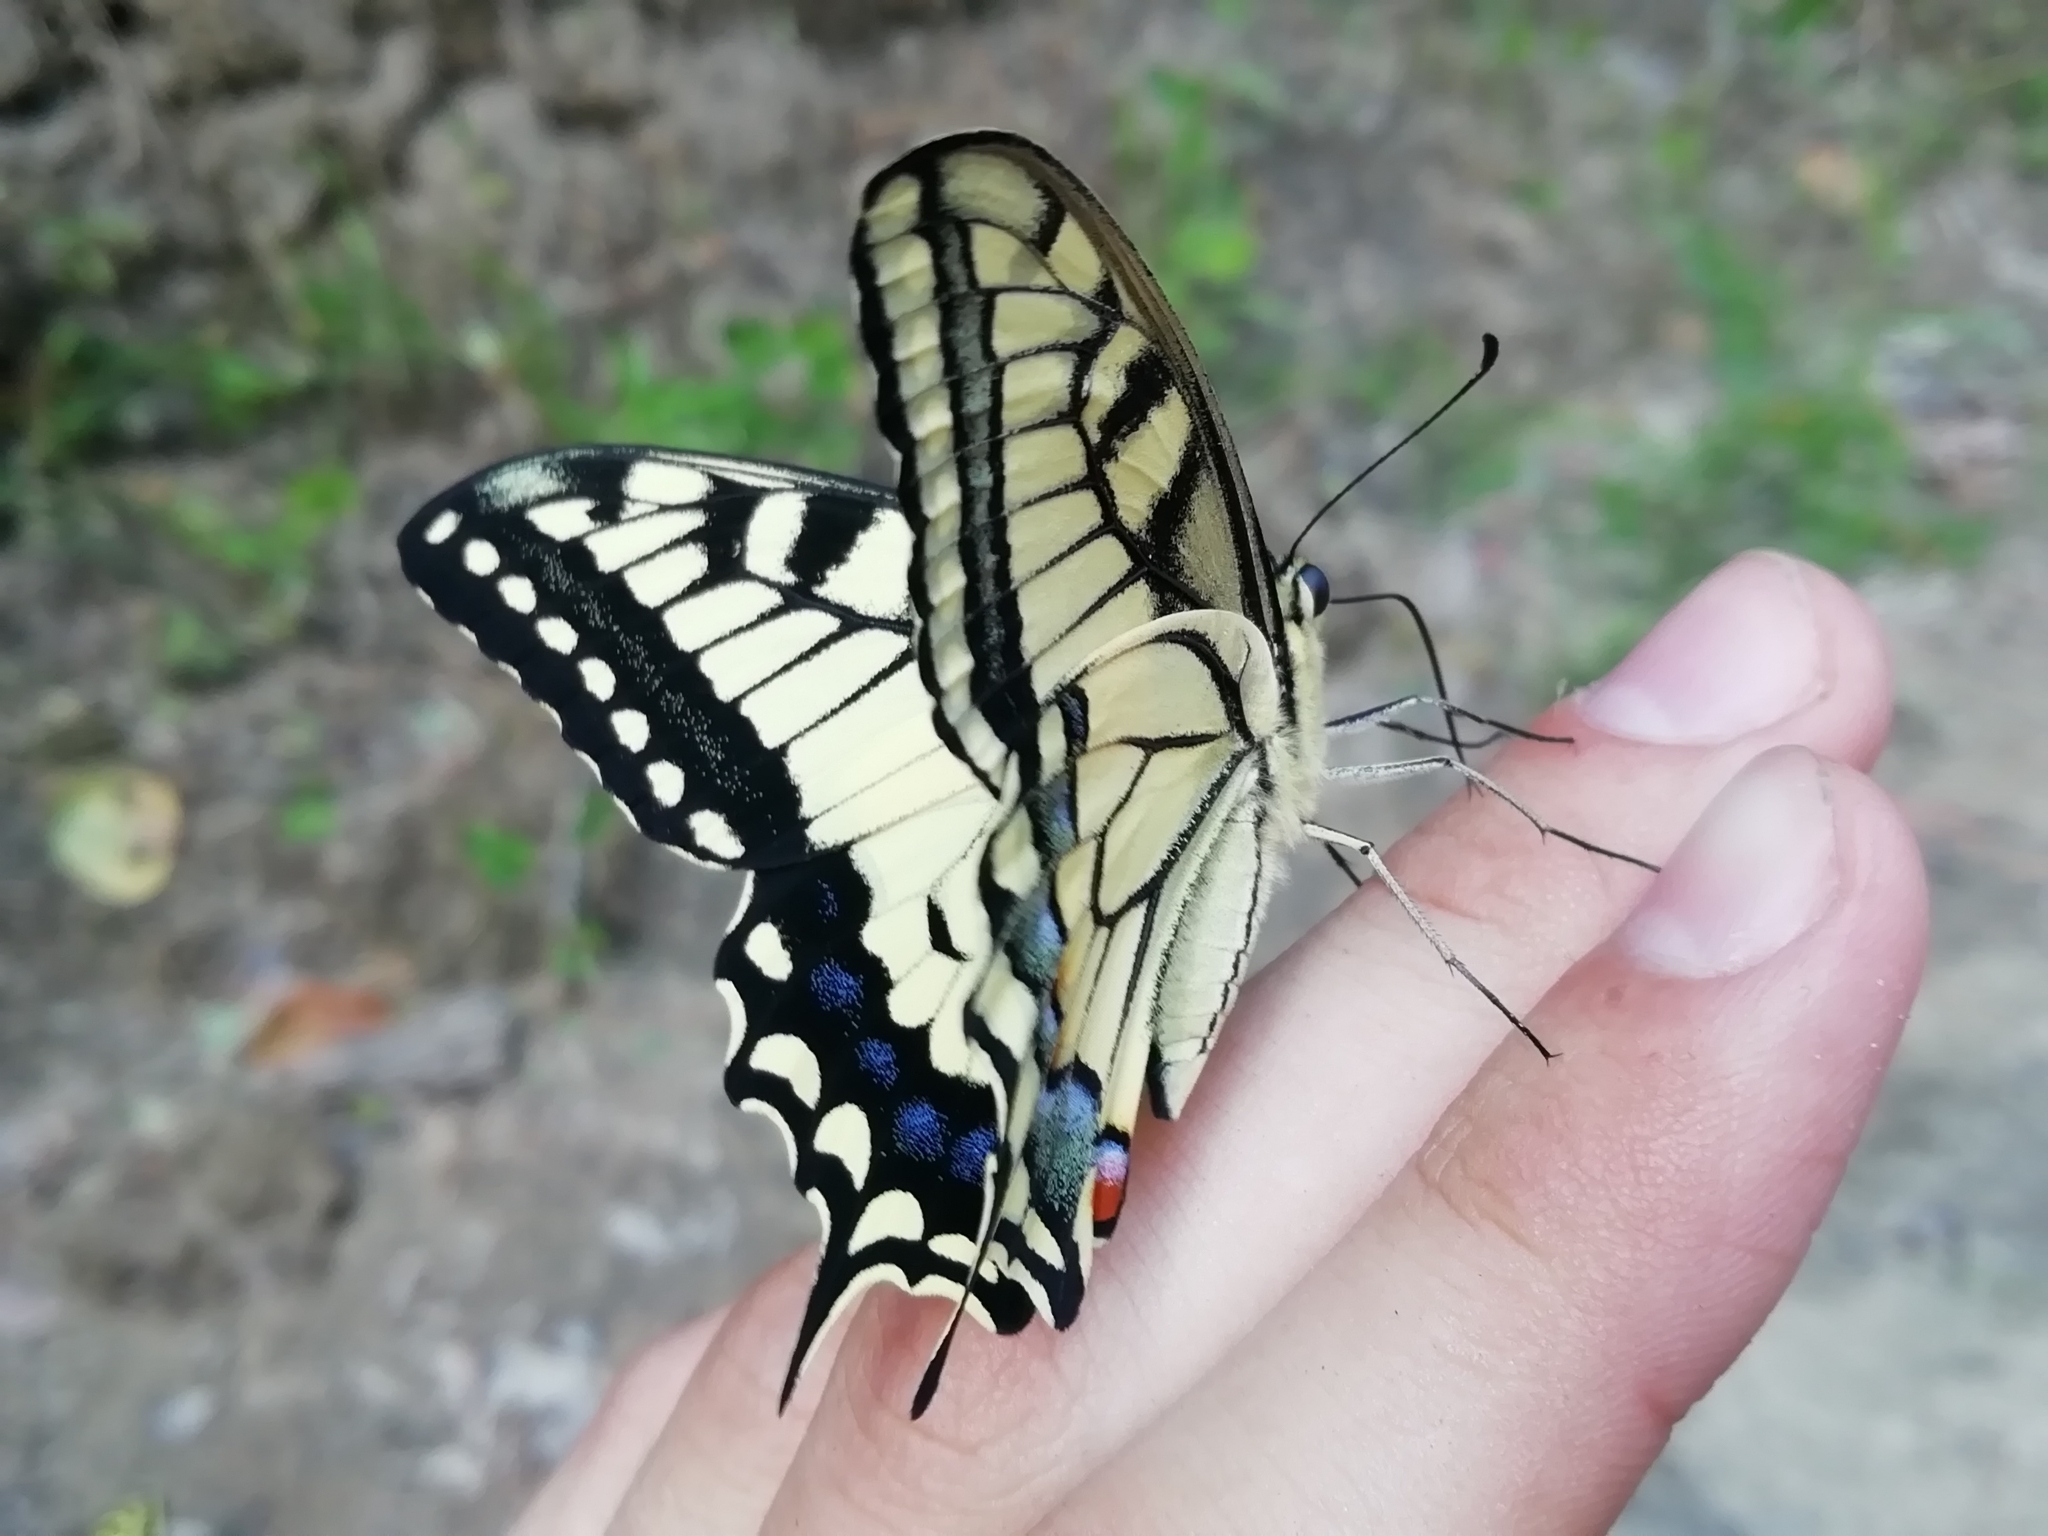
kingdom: Animalia
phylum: Arthropoda
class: Insecta
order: Lepidoptera
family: Papilionidae
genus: Papilio
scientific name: Papilio machaon
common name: Swallowtail
